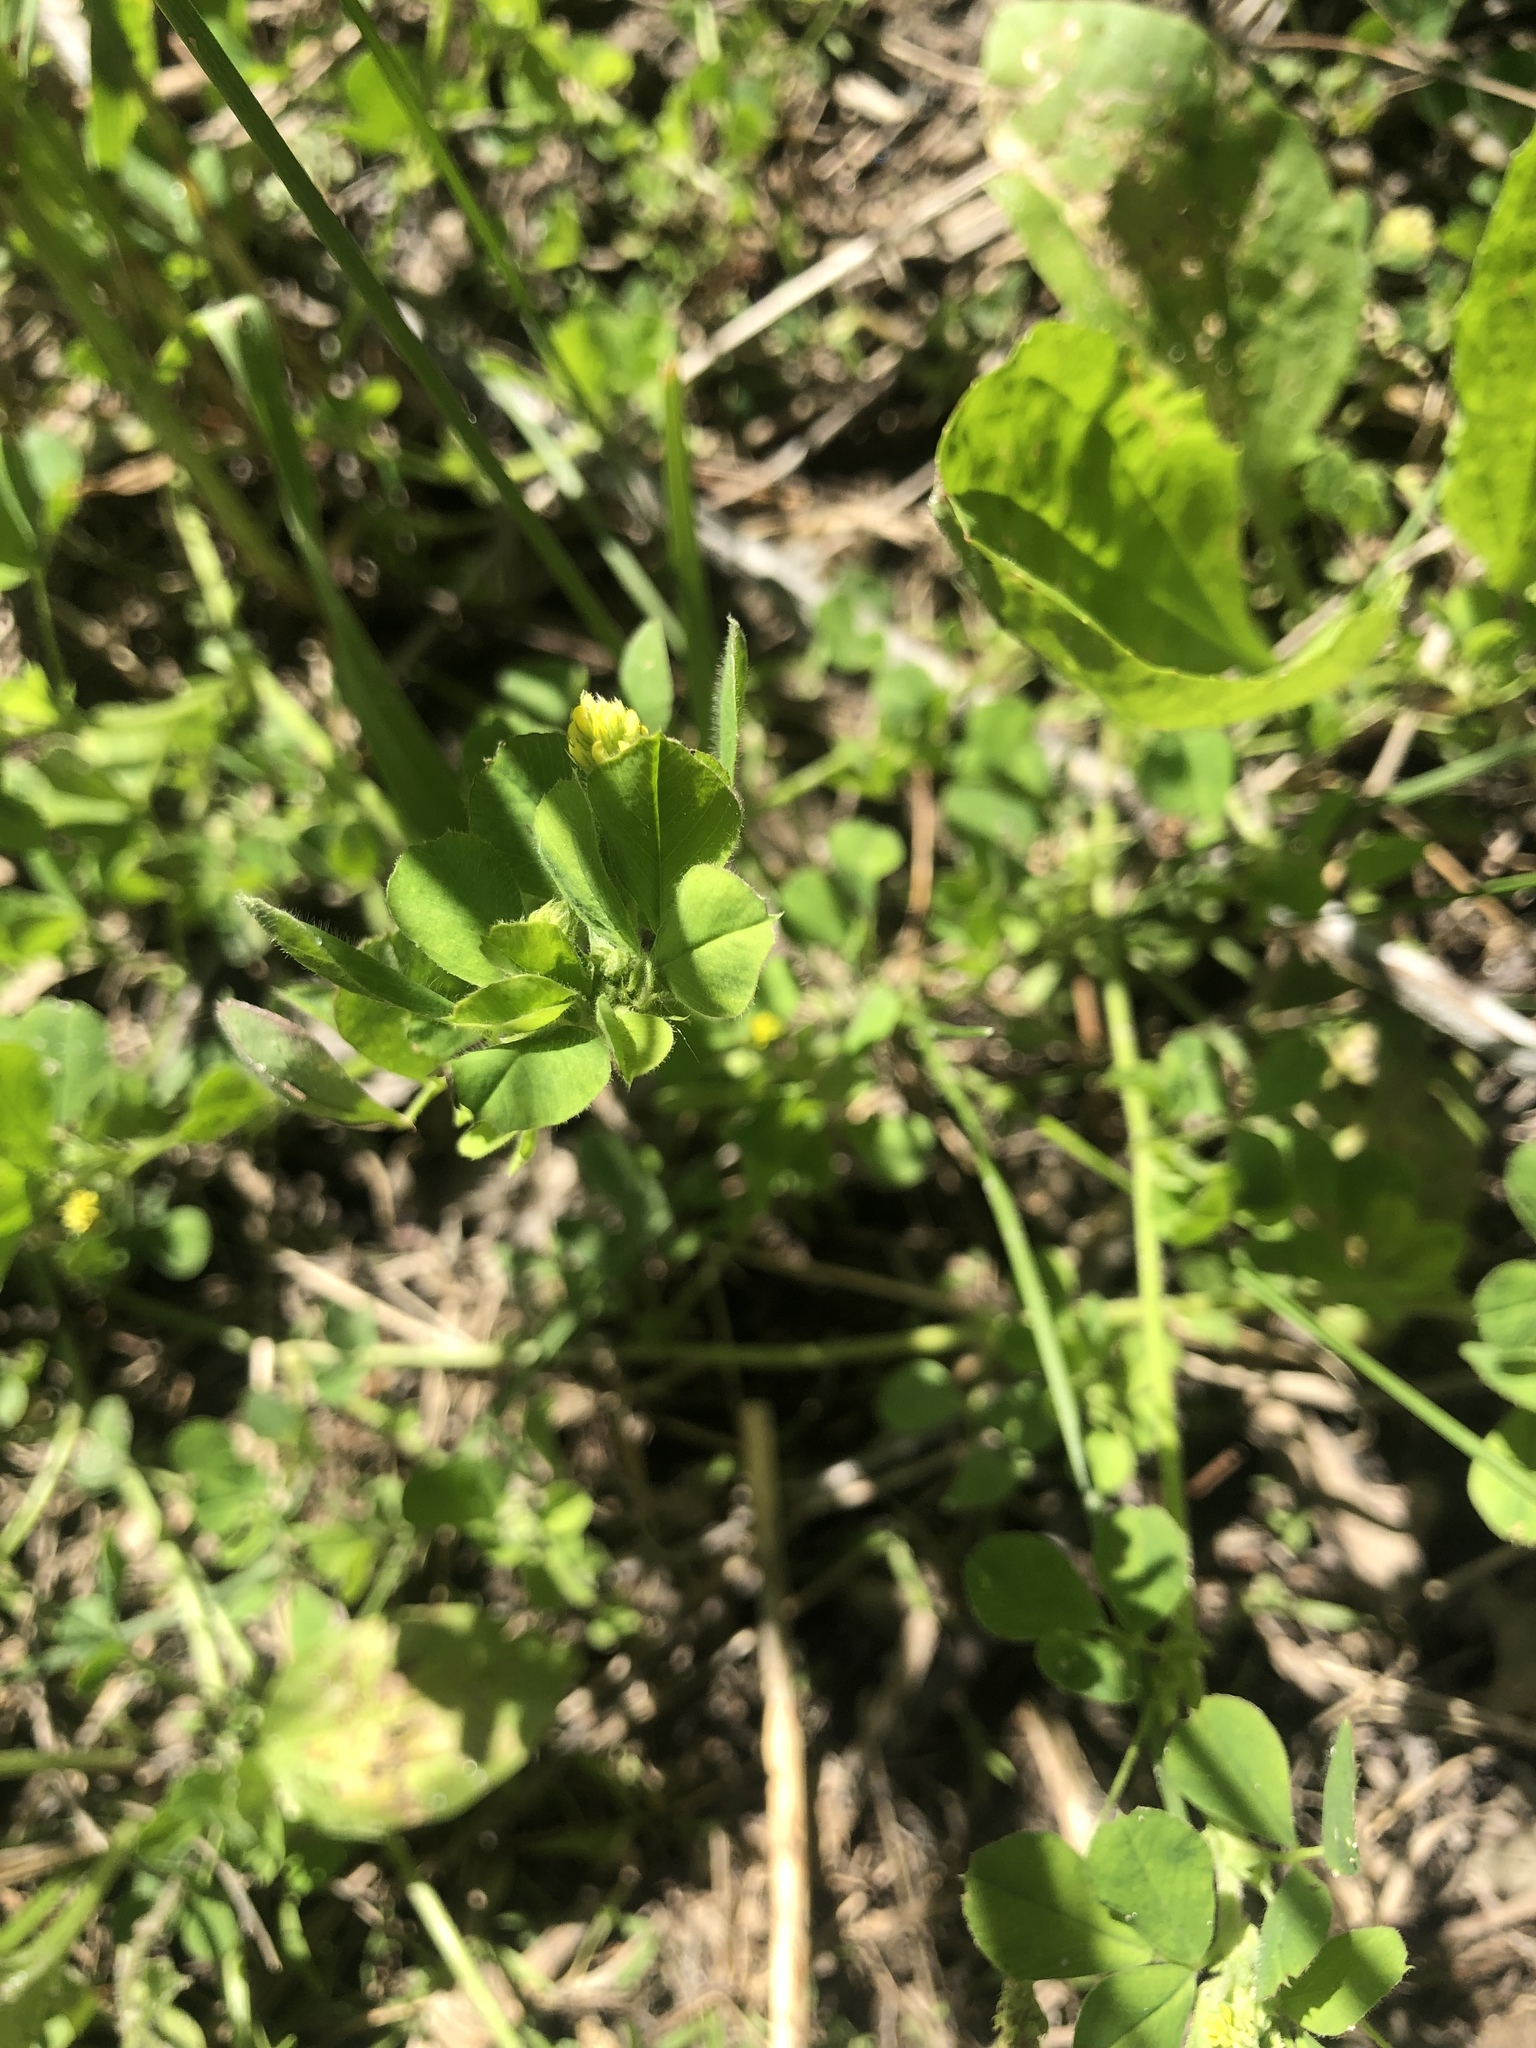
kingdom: Plantae
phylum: Tracheophyta
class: Magnoliopsida
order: Fabales
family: Fabaceae
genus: Medicago
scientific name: Medicago lupulina
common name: Black medick
